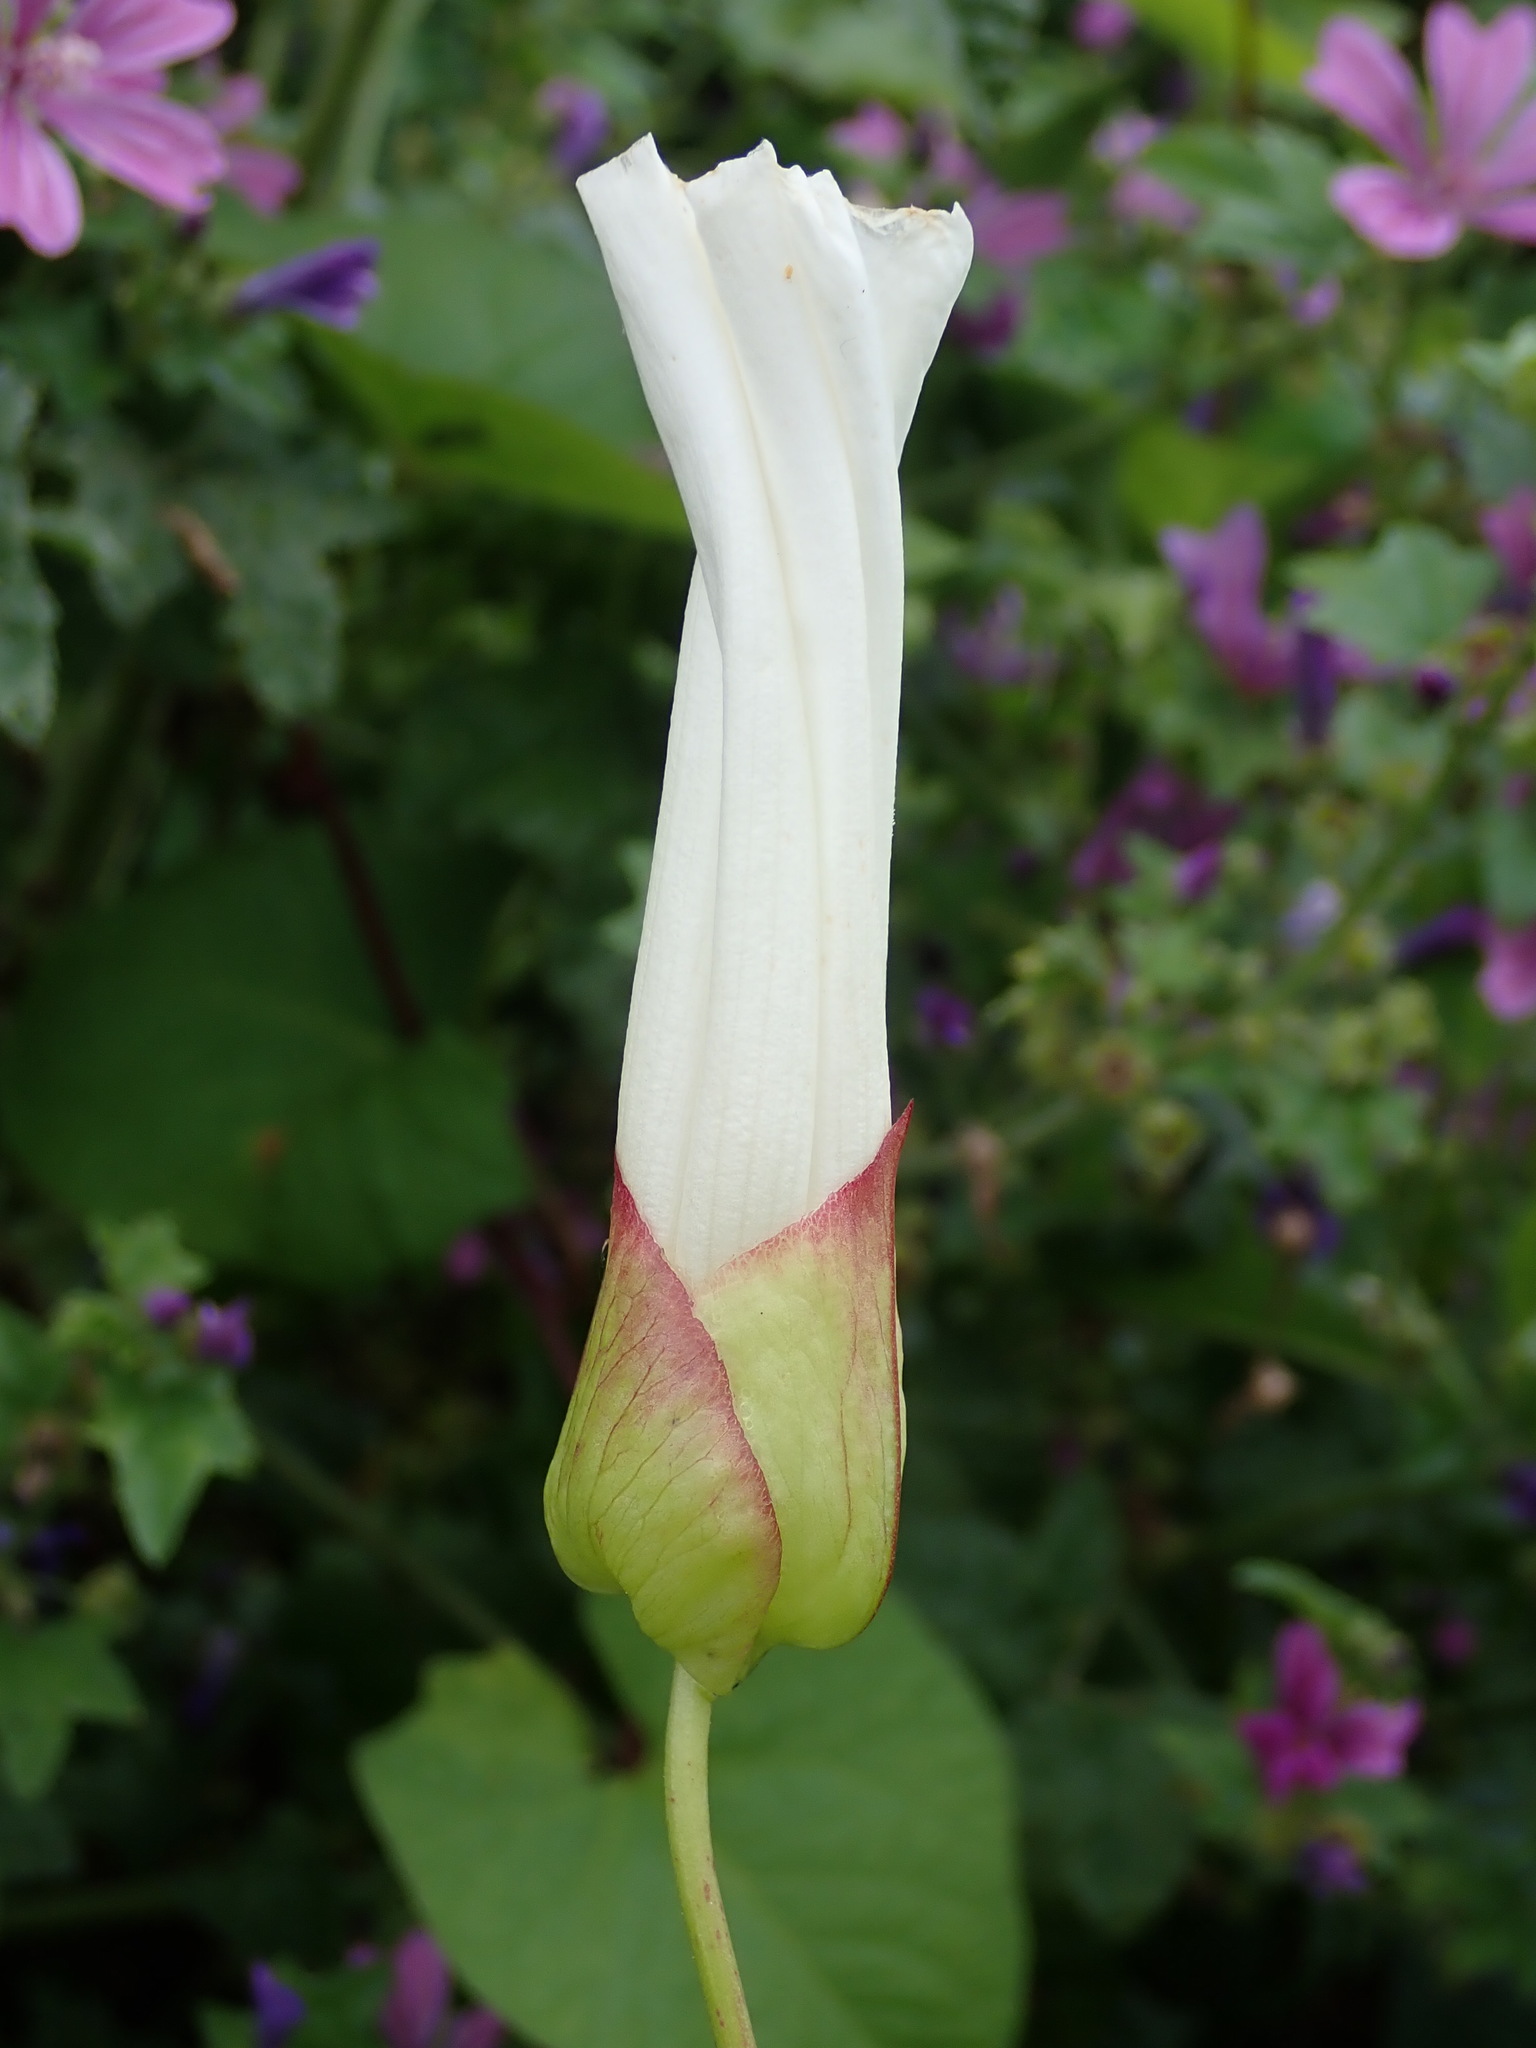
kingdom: Plantae
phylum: Tracheophyta
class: Magnoliopsida
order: Solanales
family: Convolvulaceae
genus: Calystegia
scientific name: Calystegia silvatica
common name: Large bindweed
